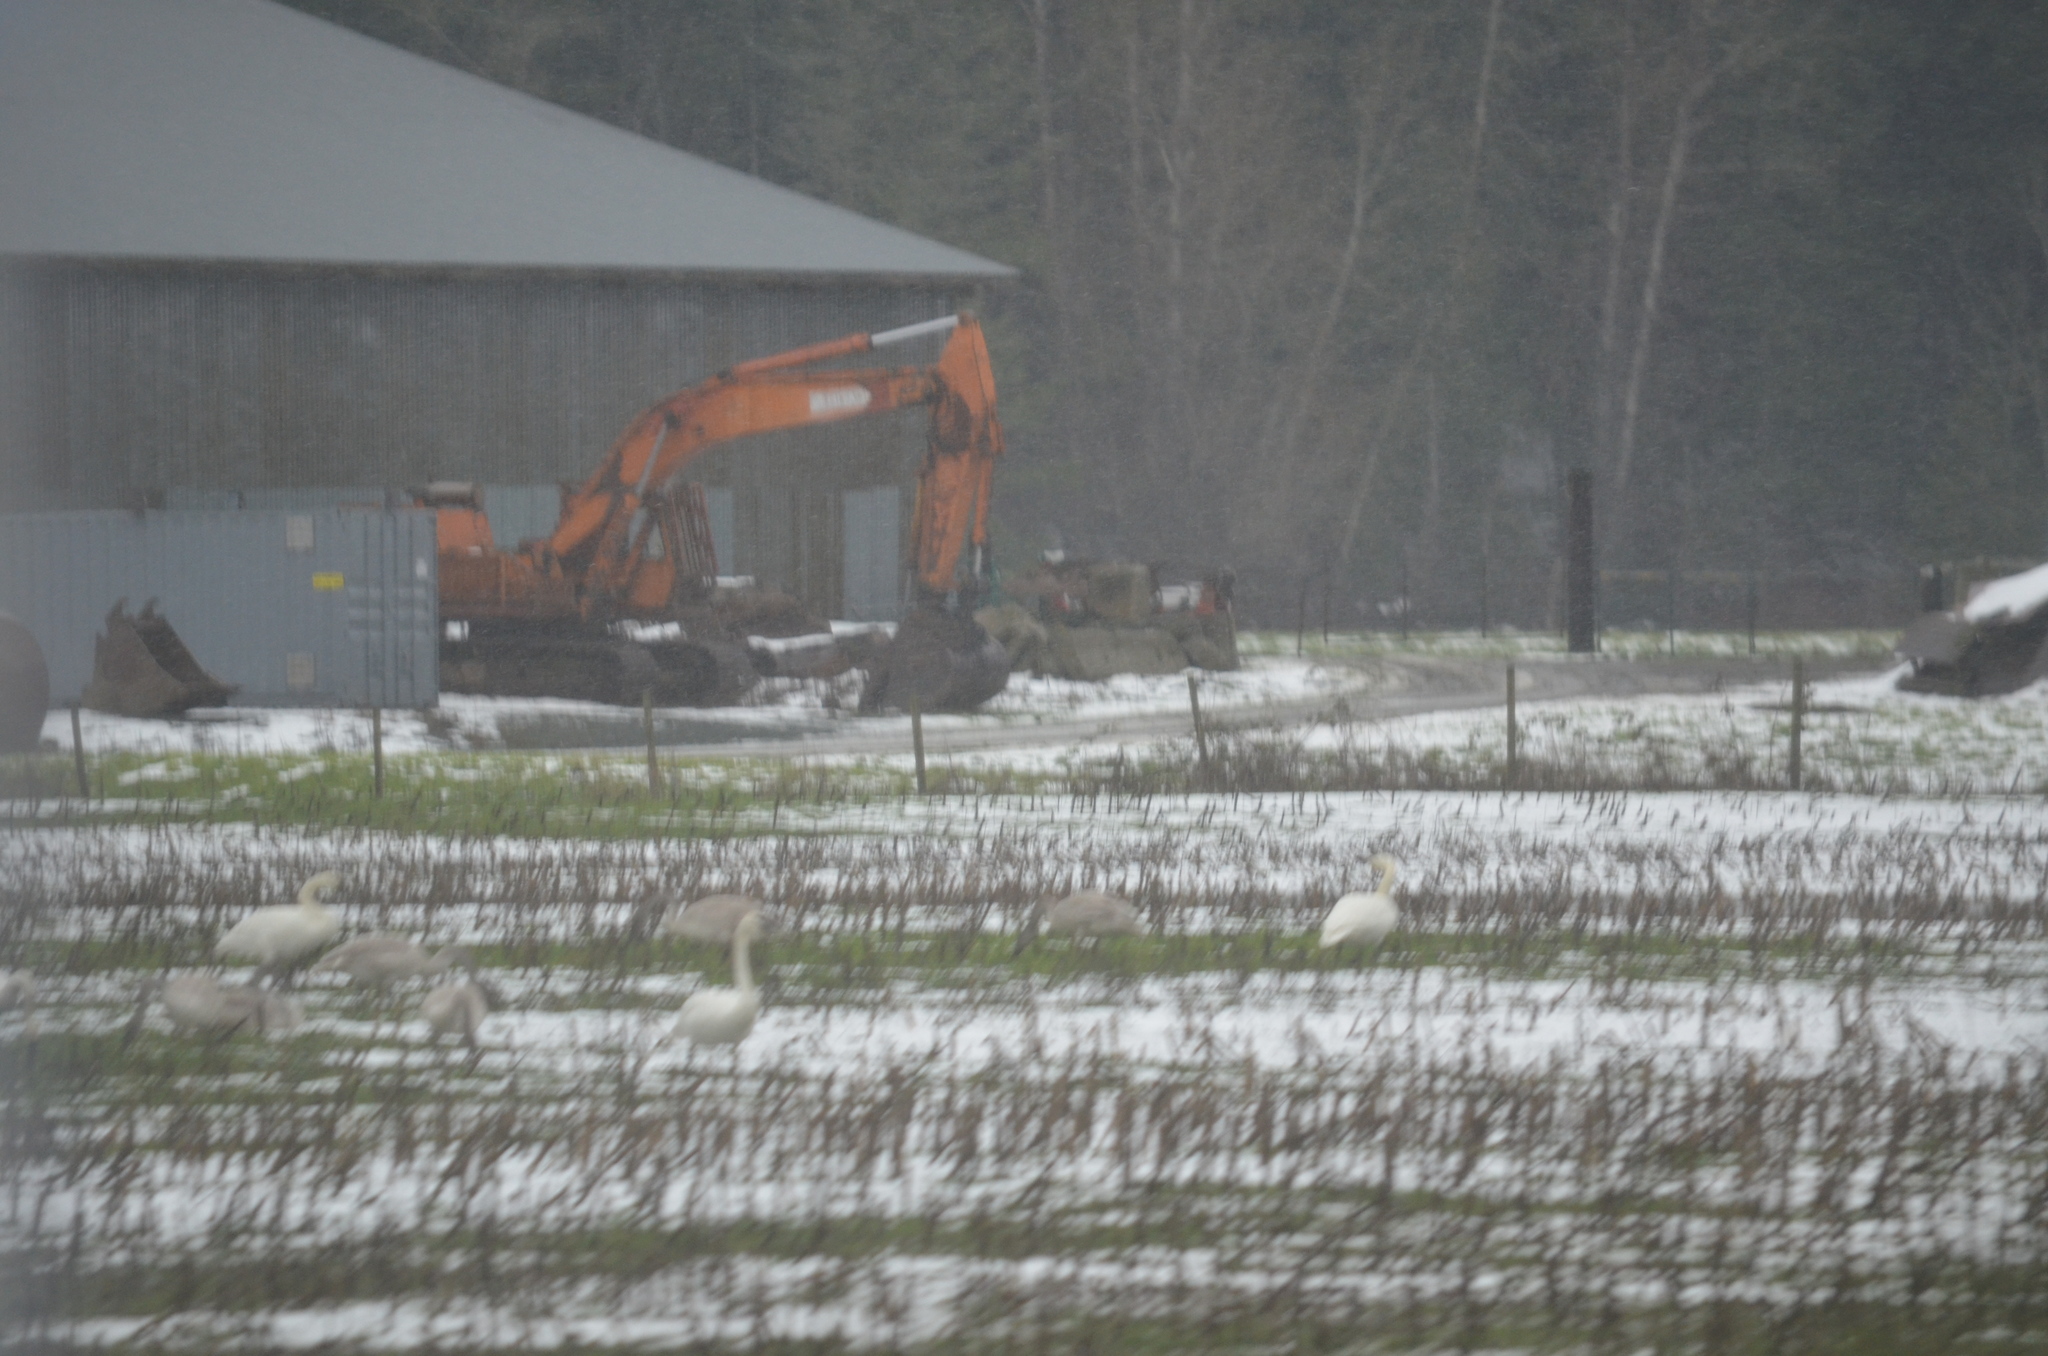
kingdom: Animalia
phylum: Chordata
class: Aves
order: Anseriformes
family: Anatidae
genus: Cygnus
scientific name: Cygnus buccinator
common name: Trumpeter swan
